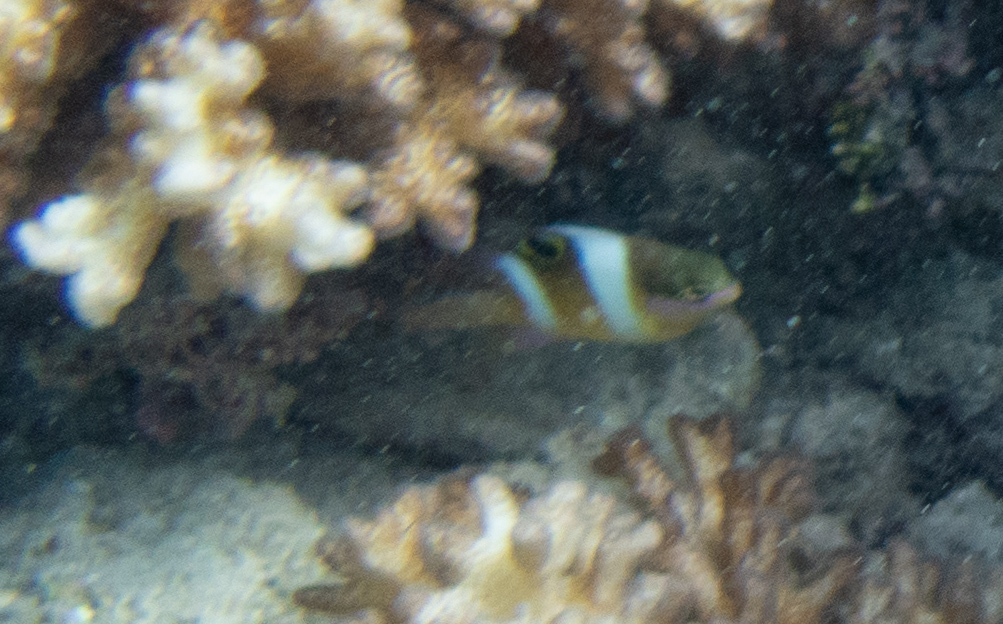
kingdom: Animalia
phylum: Chordata
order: Perciformes
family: Pomacentridae
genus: Dischistodus
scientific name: Dischistodus pseudochrysopoecilus
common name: Monarch damsel
